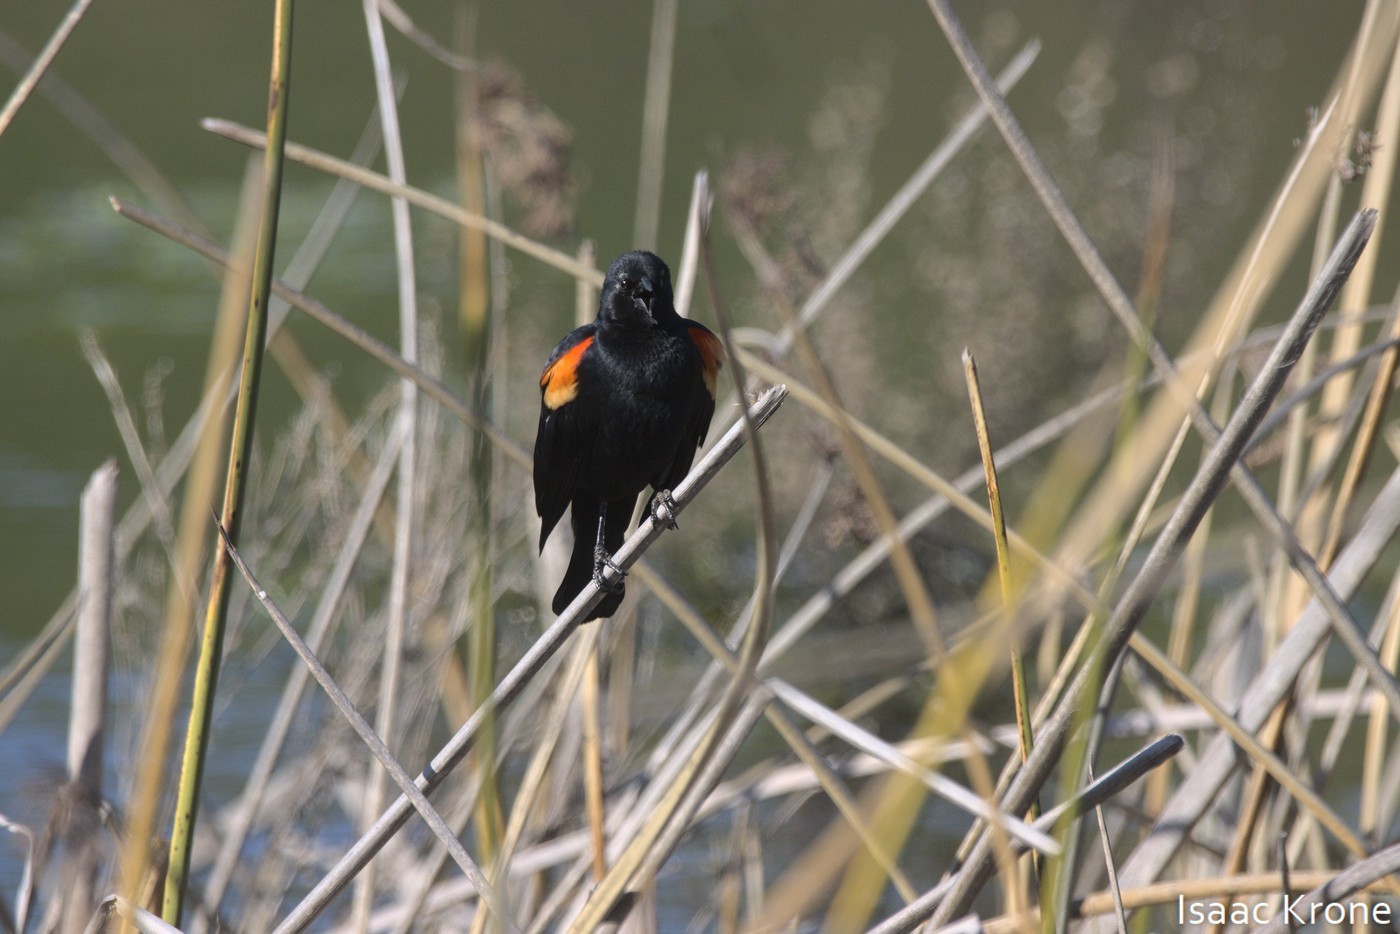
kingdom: Animalia
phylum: Chordata
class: Aves
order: Passeriformes
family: Icteridae
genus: Agelaius
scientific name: Agelaius phoeniceus
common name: Red-winged blackbird
